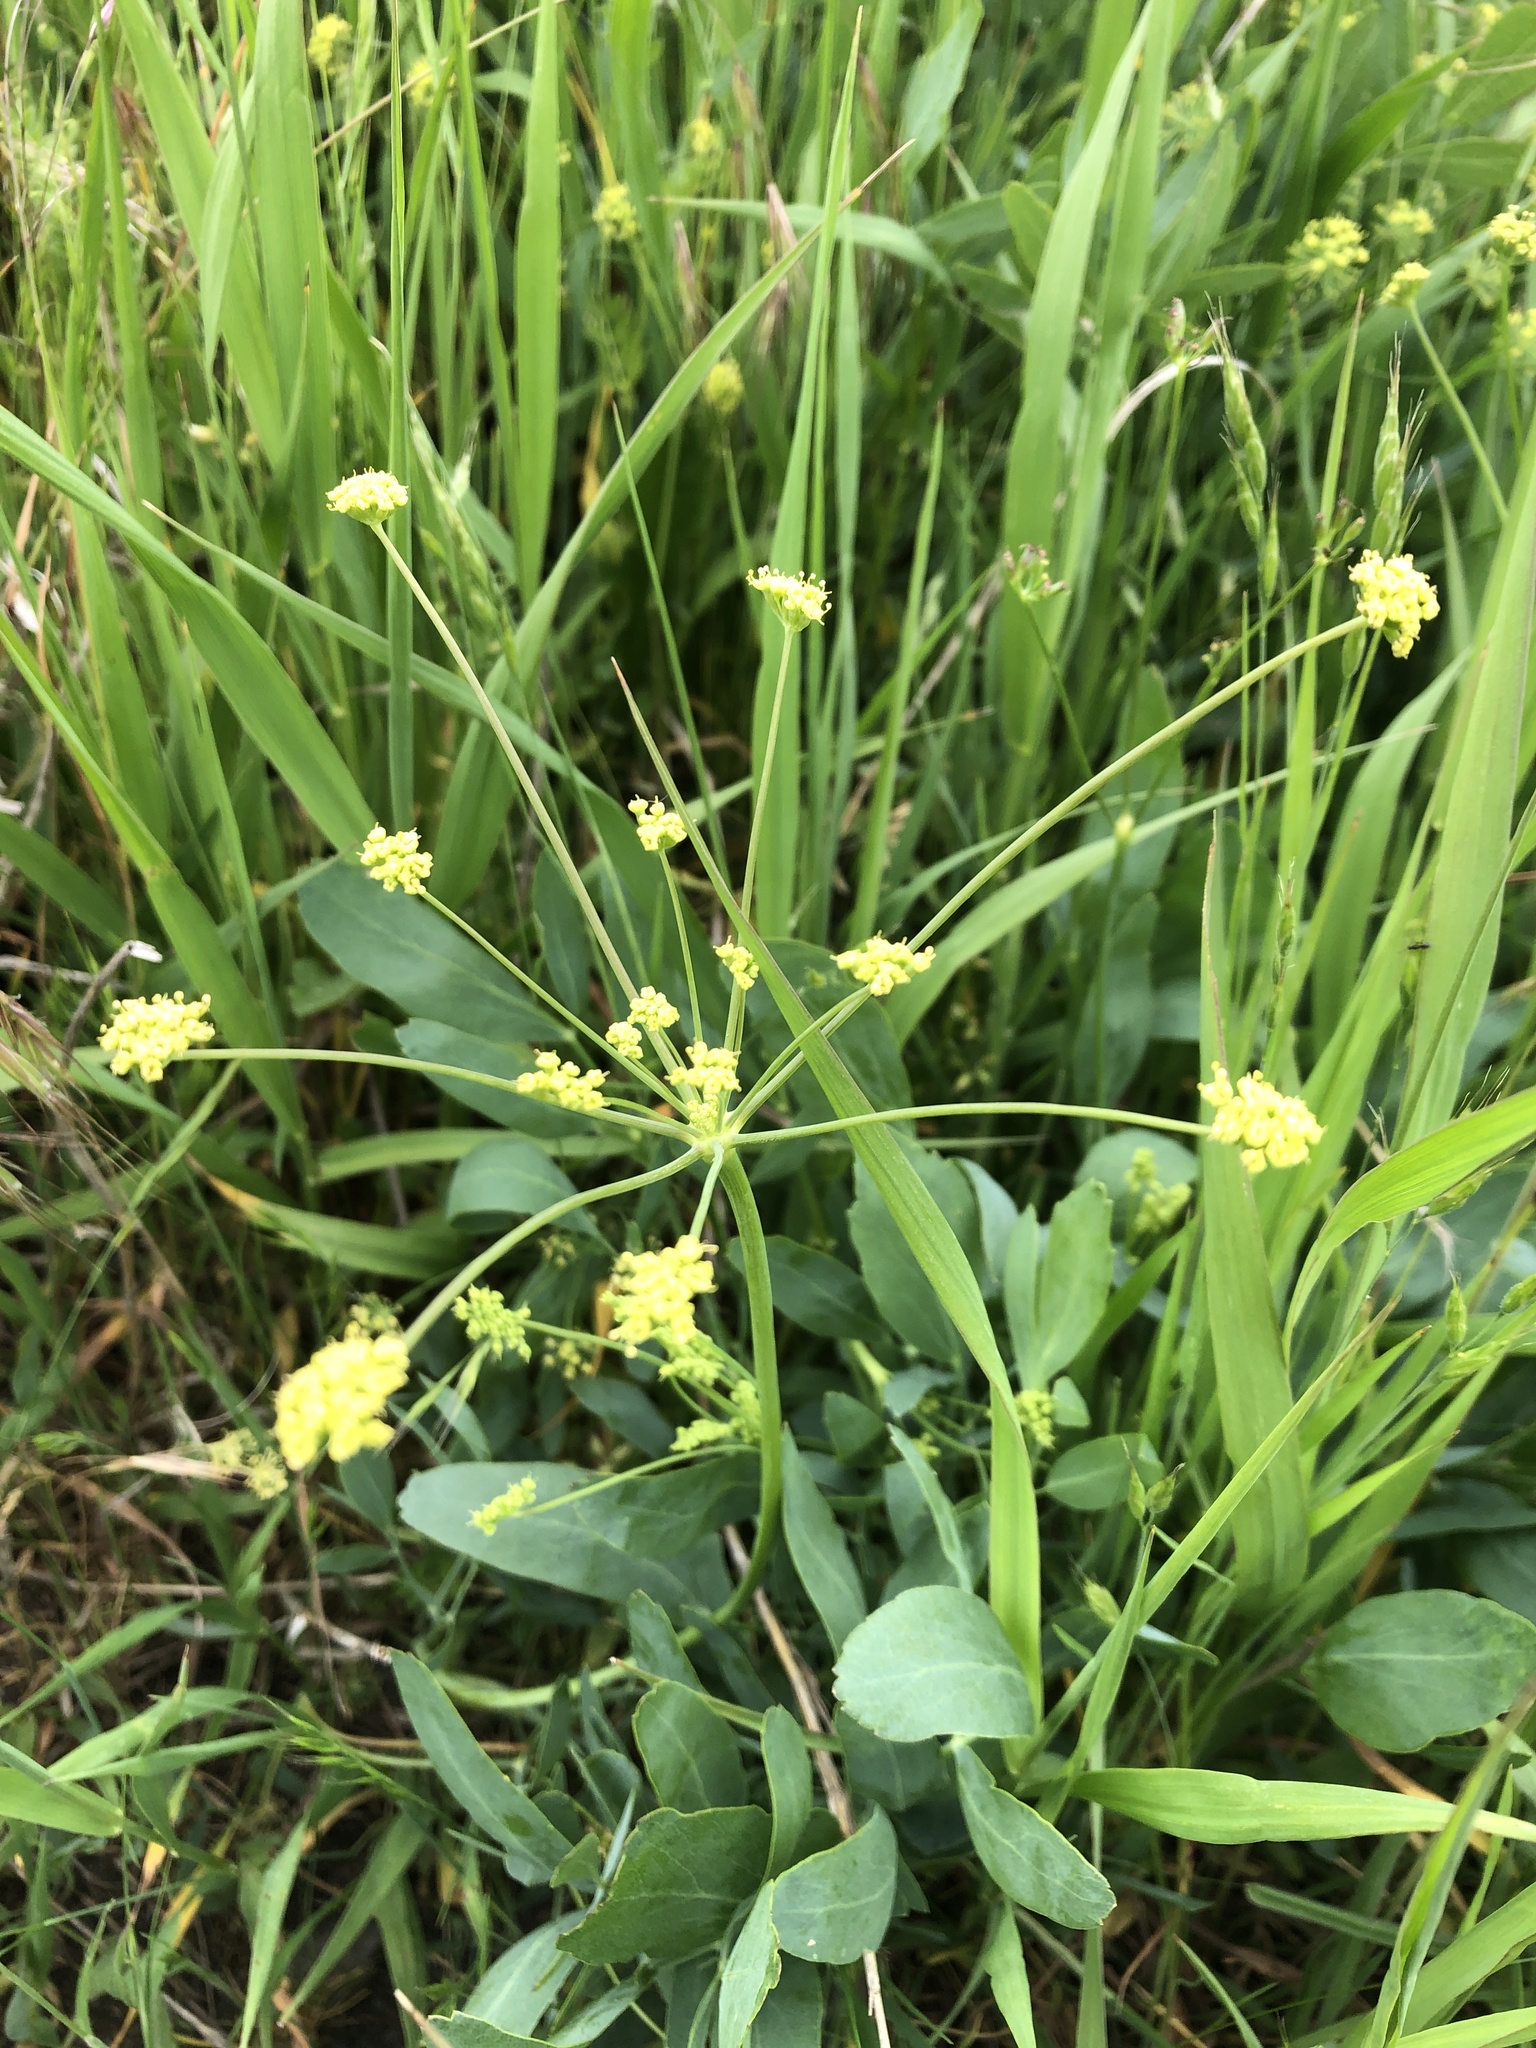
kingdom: Plantae
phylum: Tracheophyta
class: Magnoliopsida
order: Apiales
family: Apiaceae
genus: Lomatium
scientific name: Lomatium nudicaule
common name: Pestle lomatium
